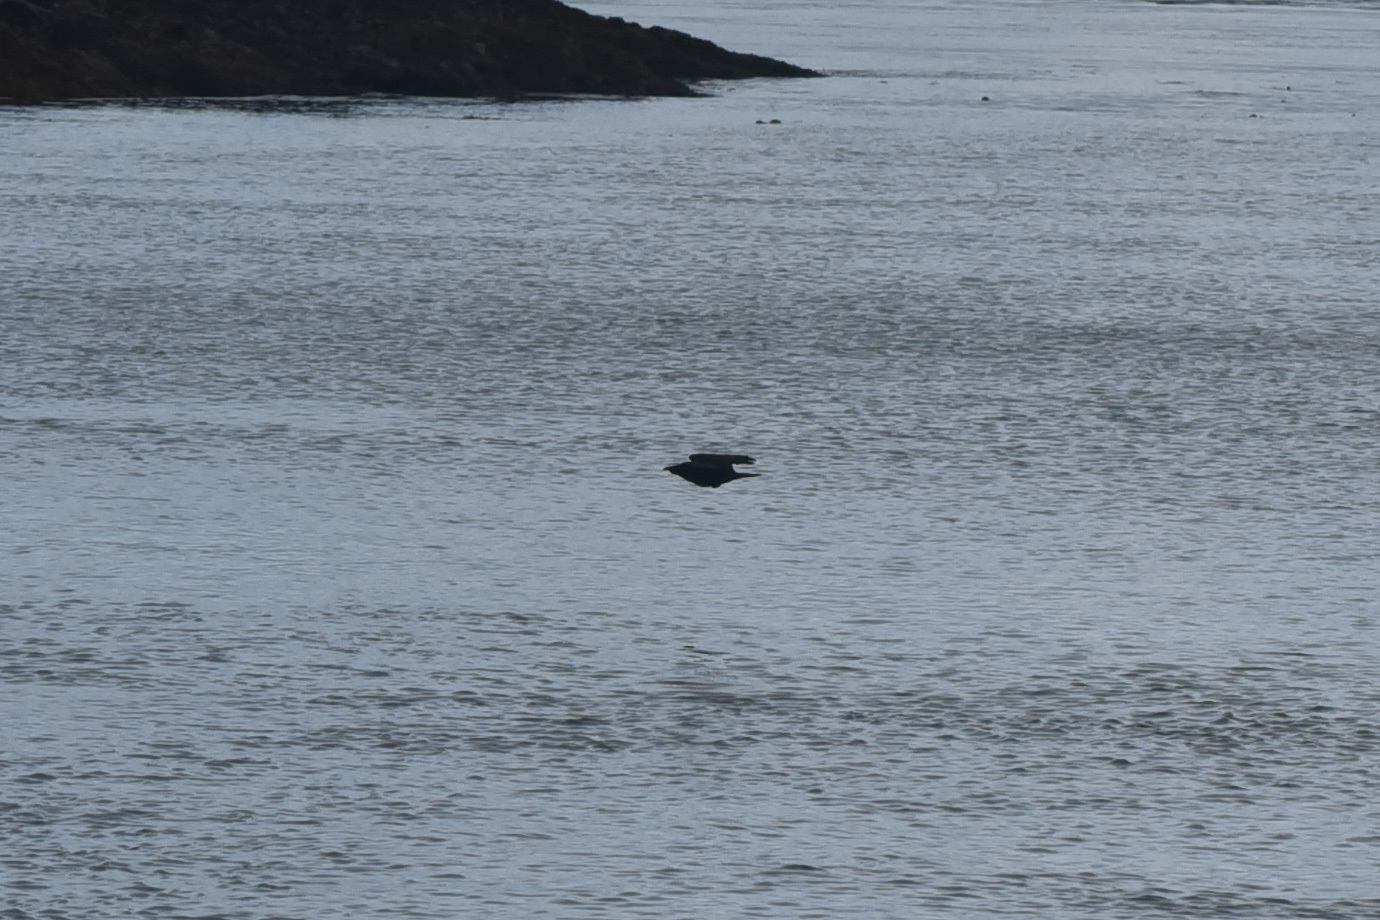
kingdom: Animalia
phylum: Chordata
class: Aves
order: Passeriformes
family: Corvidae
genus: Corvus
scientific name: Corvus brachyrhynchos
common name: American crow
